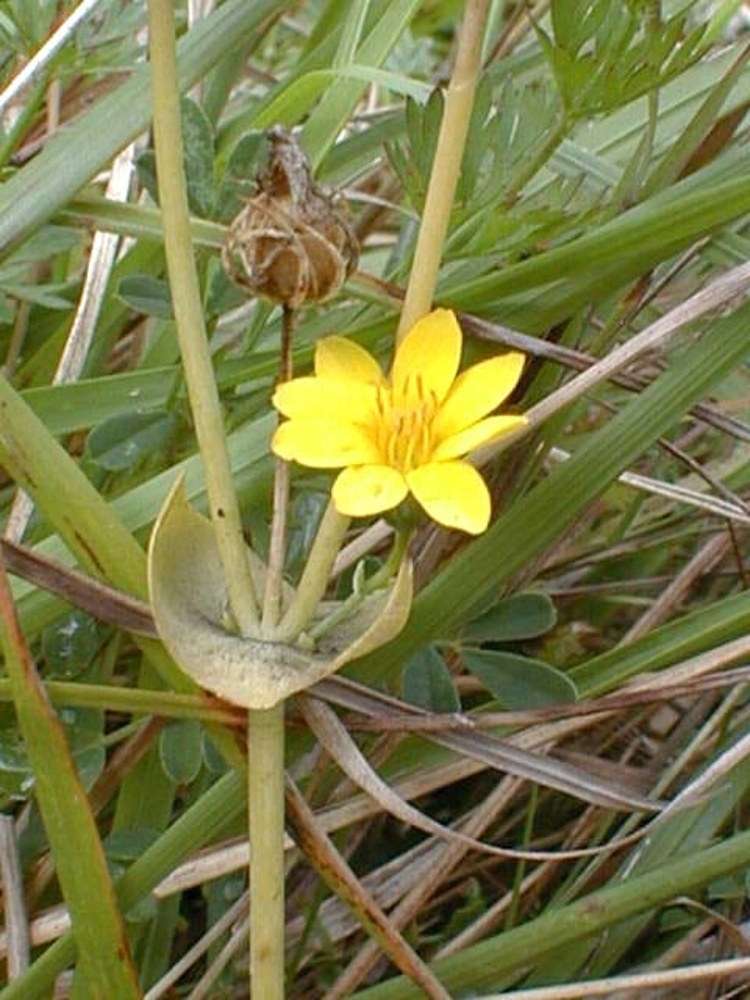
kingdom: Plantae
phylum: Tracheophyta
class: Magnoliopsida
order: Asterales
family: Asteraceae
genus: Solidago
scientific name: Solidago virgaurea
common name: Goldenrod
